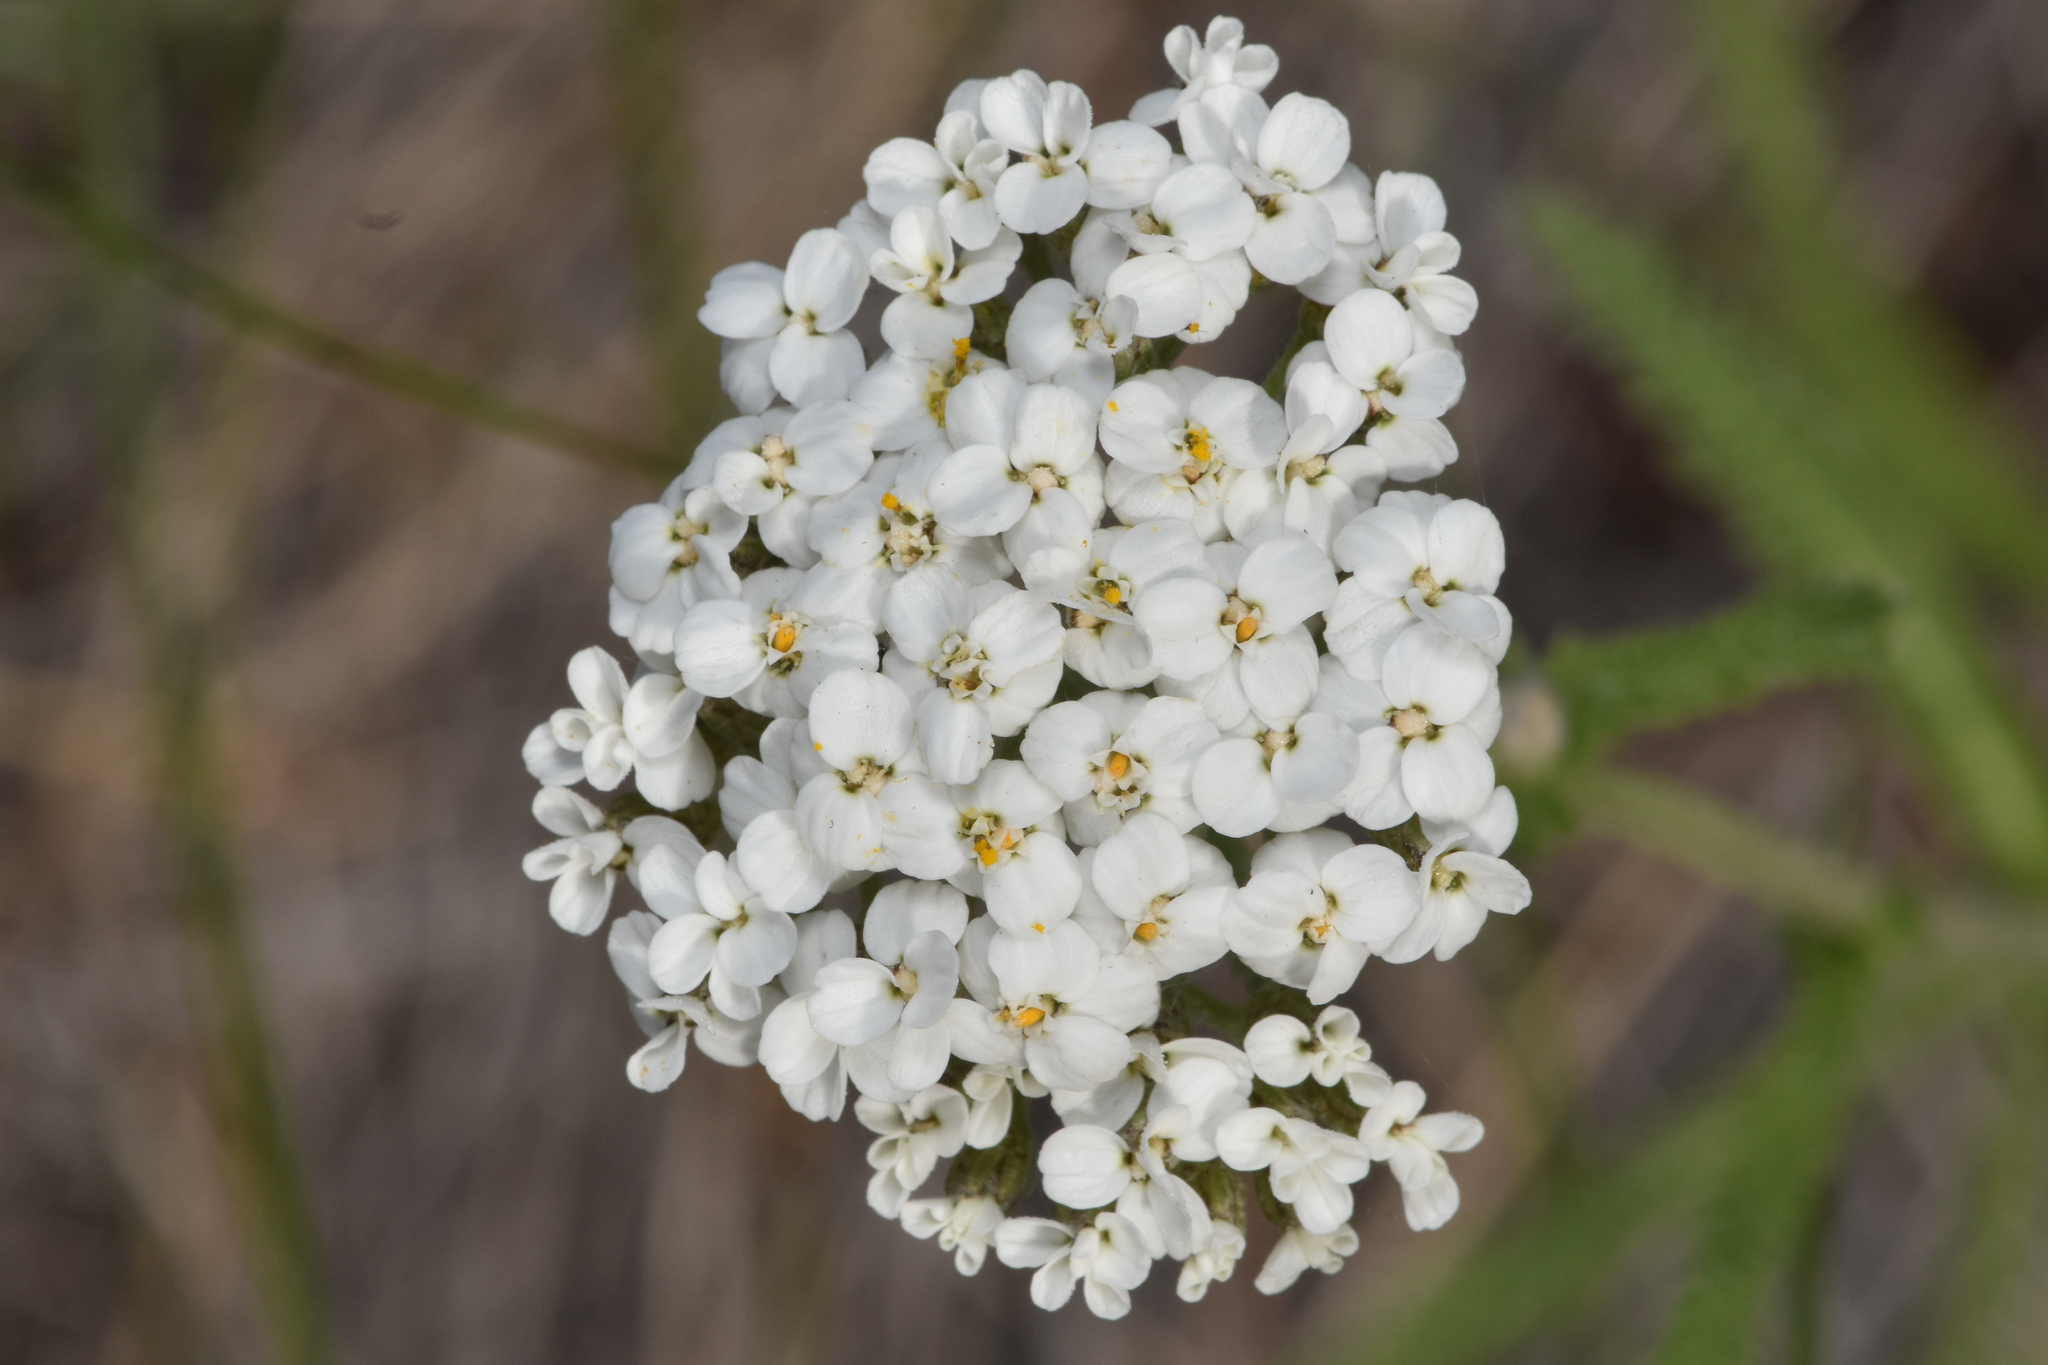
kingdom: Plantae
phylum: Tracheophyta
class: Magnoliopsida
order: Asterales
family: Asteraceae
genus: Achillea
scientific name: Achillea millefolium
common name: Yarrow
